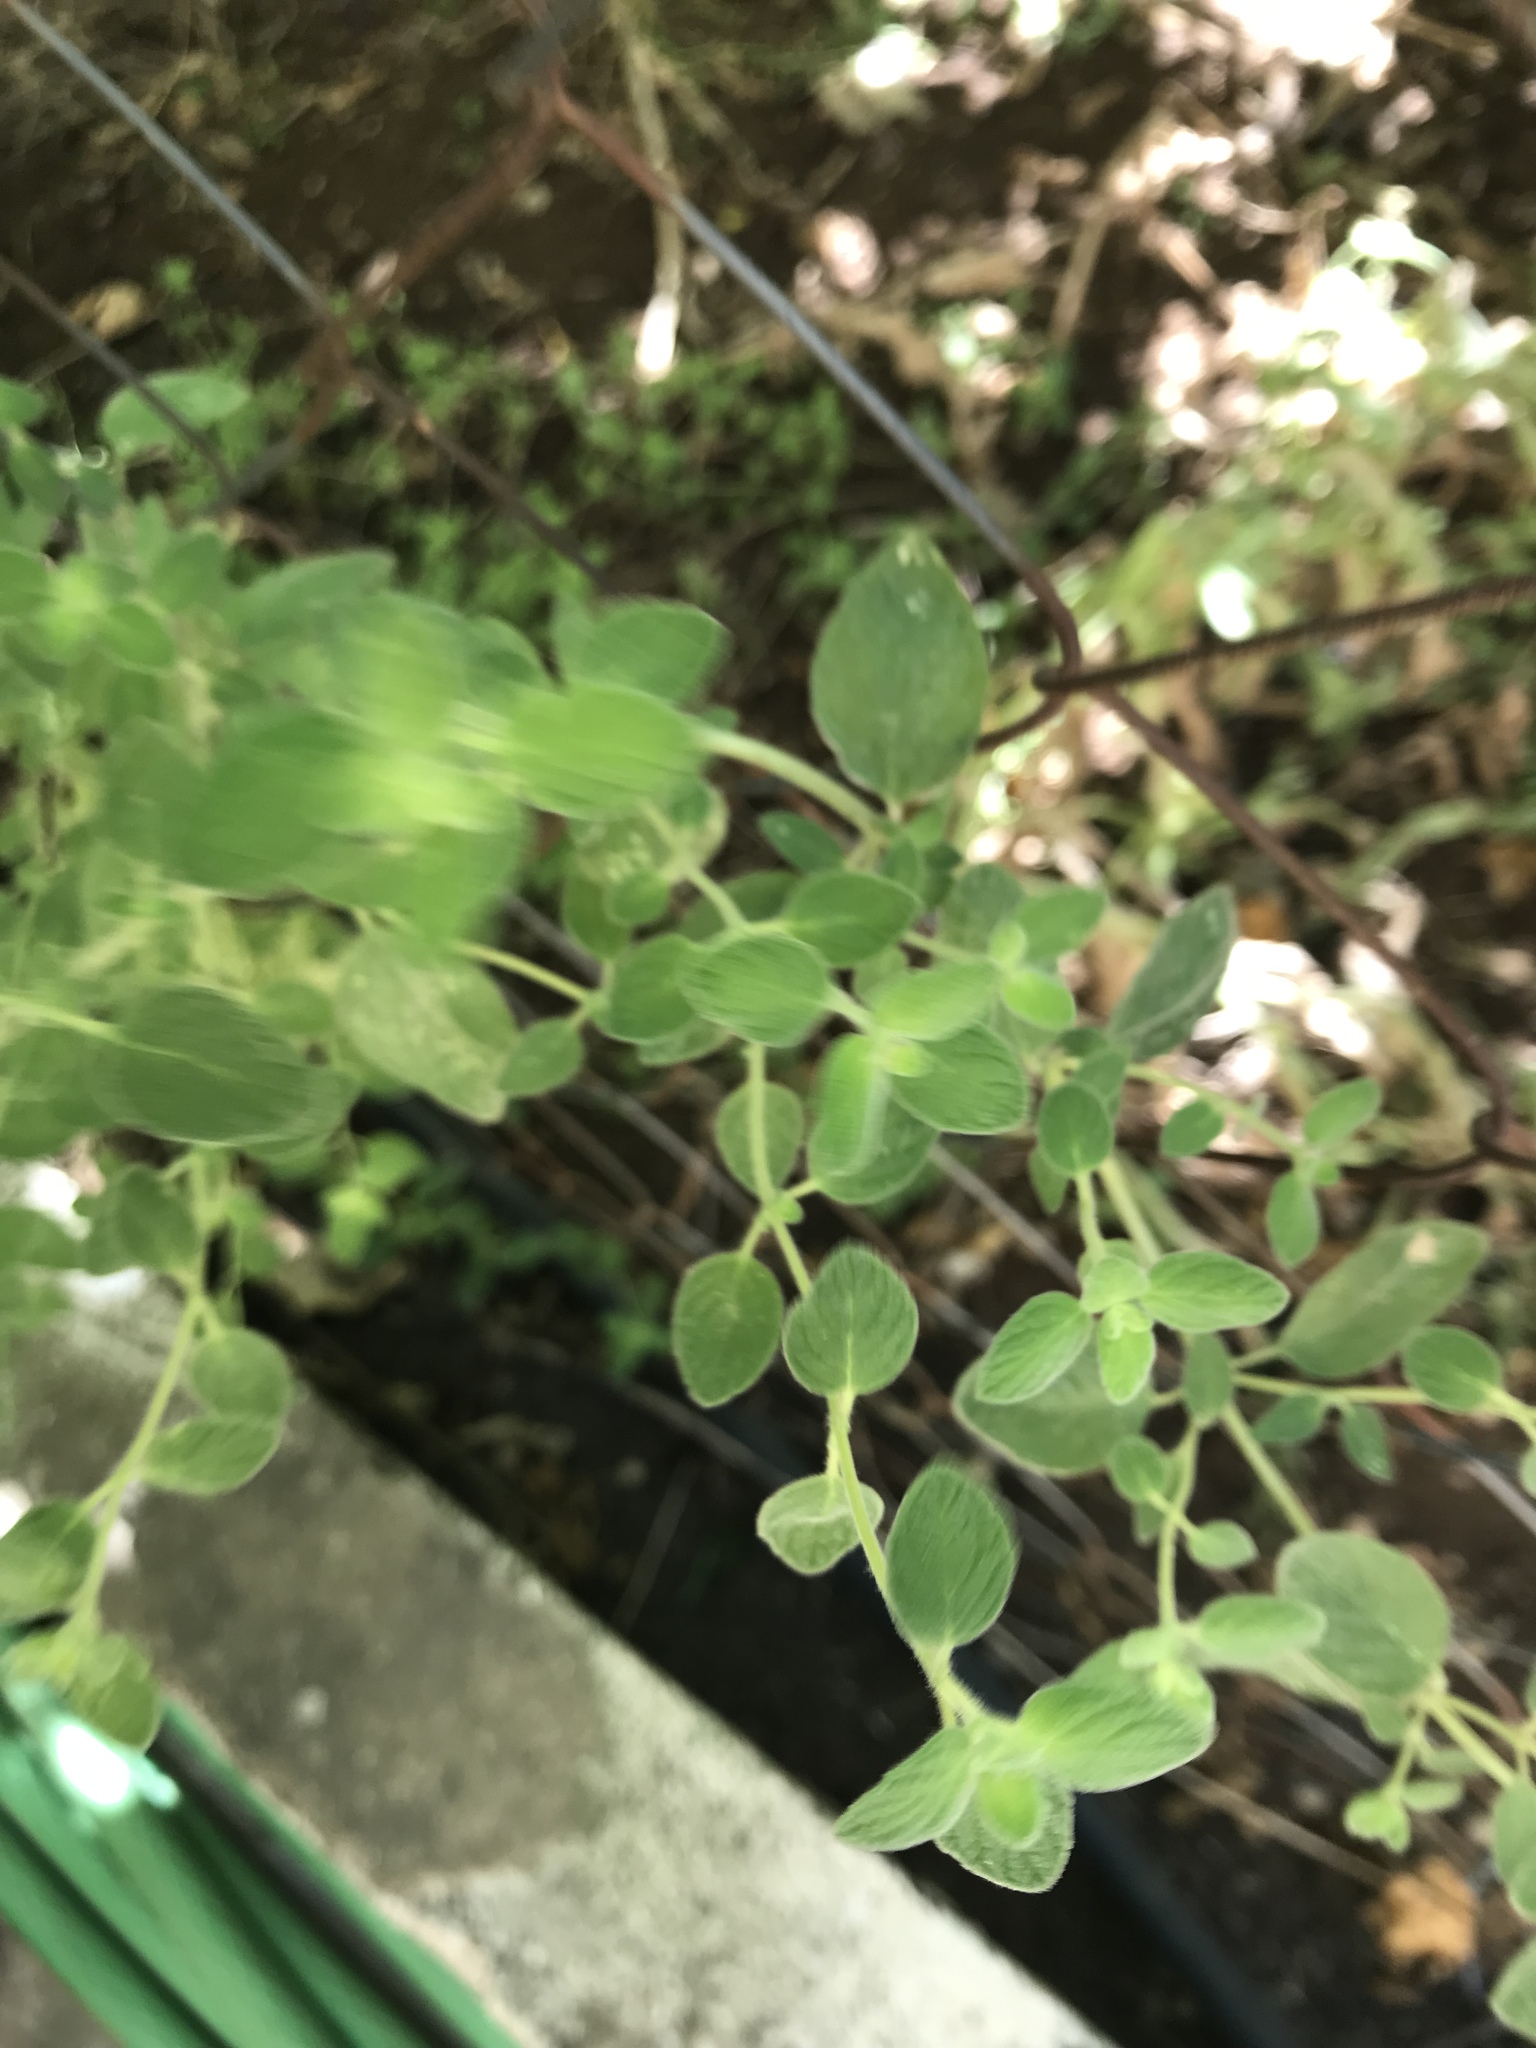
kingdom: Plantae
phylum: Tracheophyta
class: Magnoliopsida
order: Lamiales
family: Lamiaceae
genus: Origanum
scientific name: Origanum syriacum
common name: Biblical-hyssop
